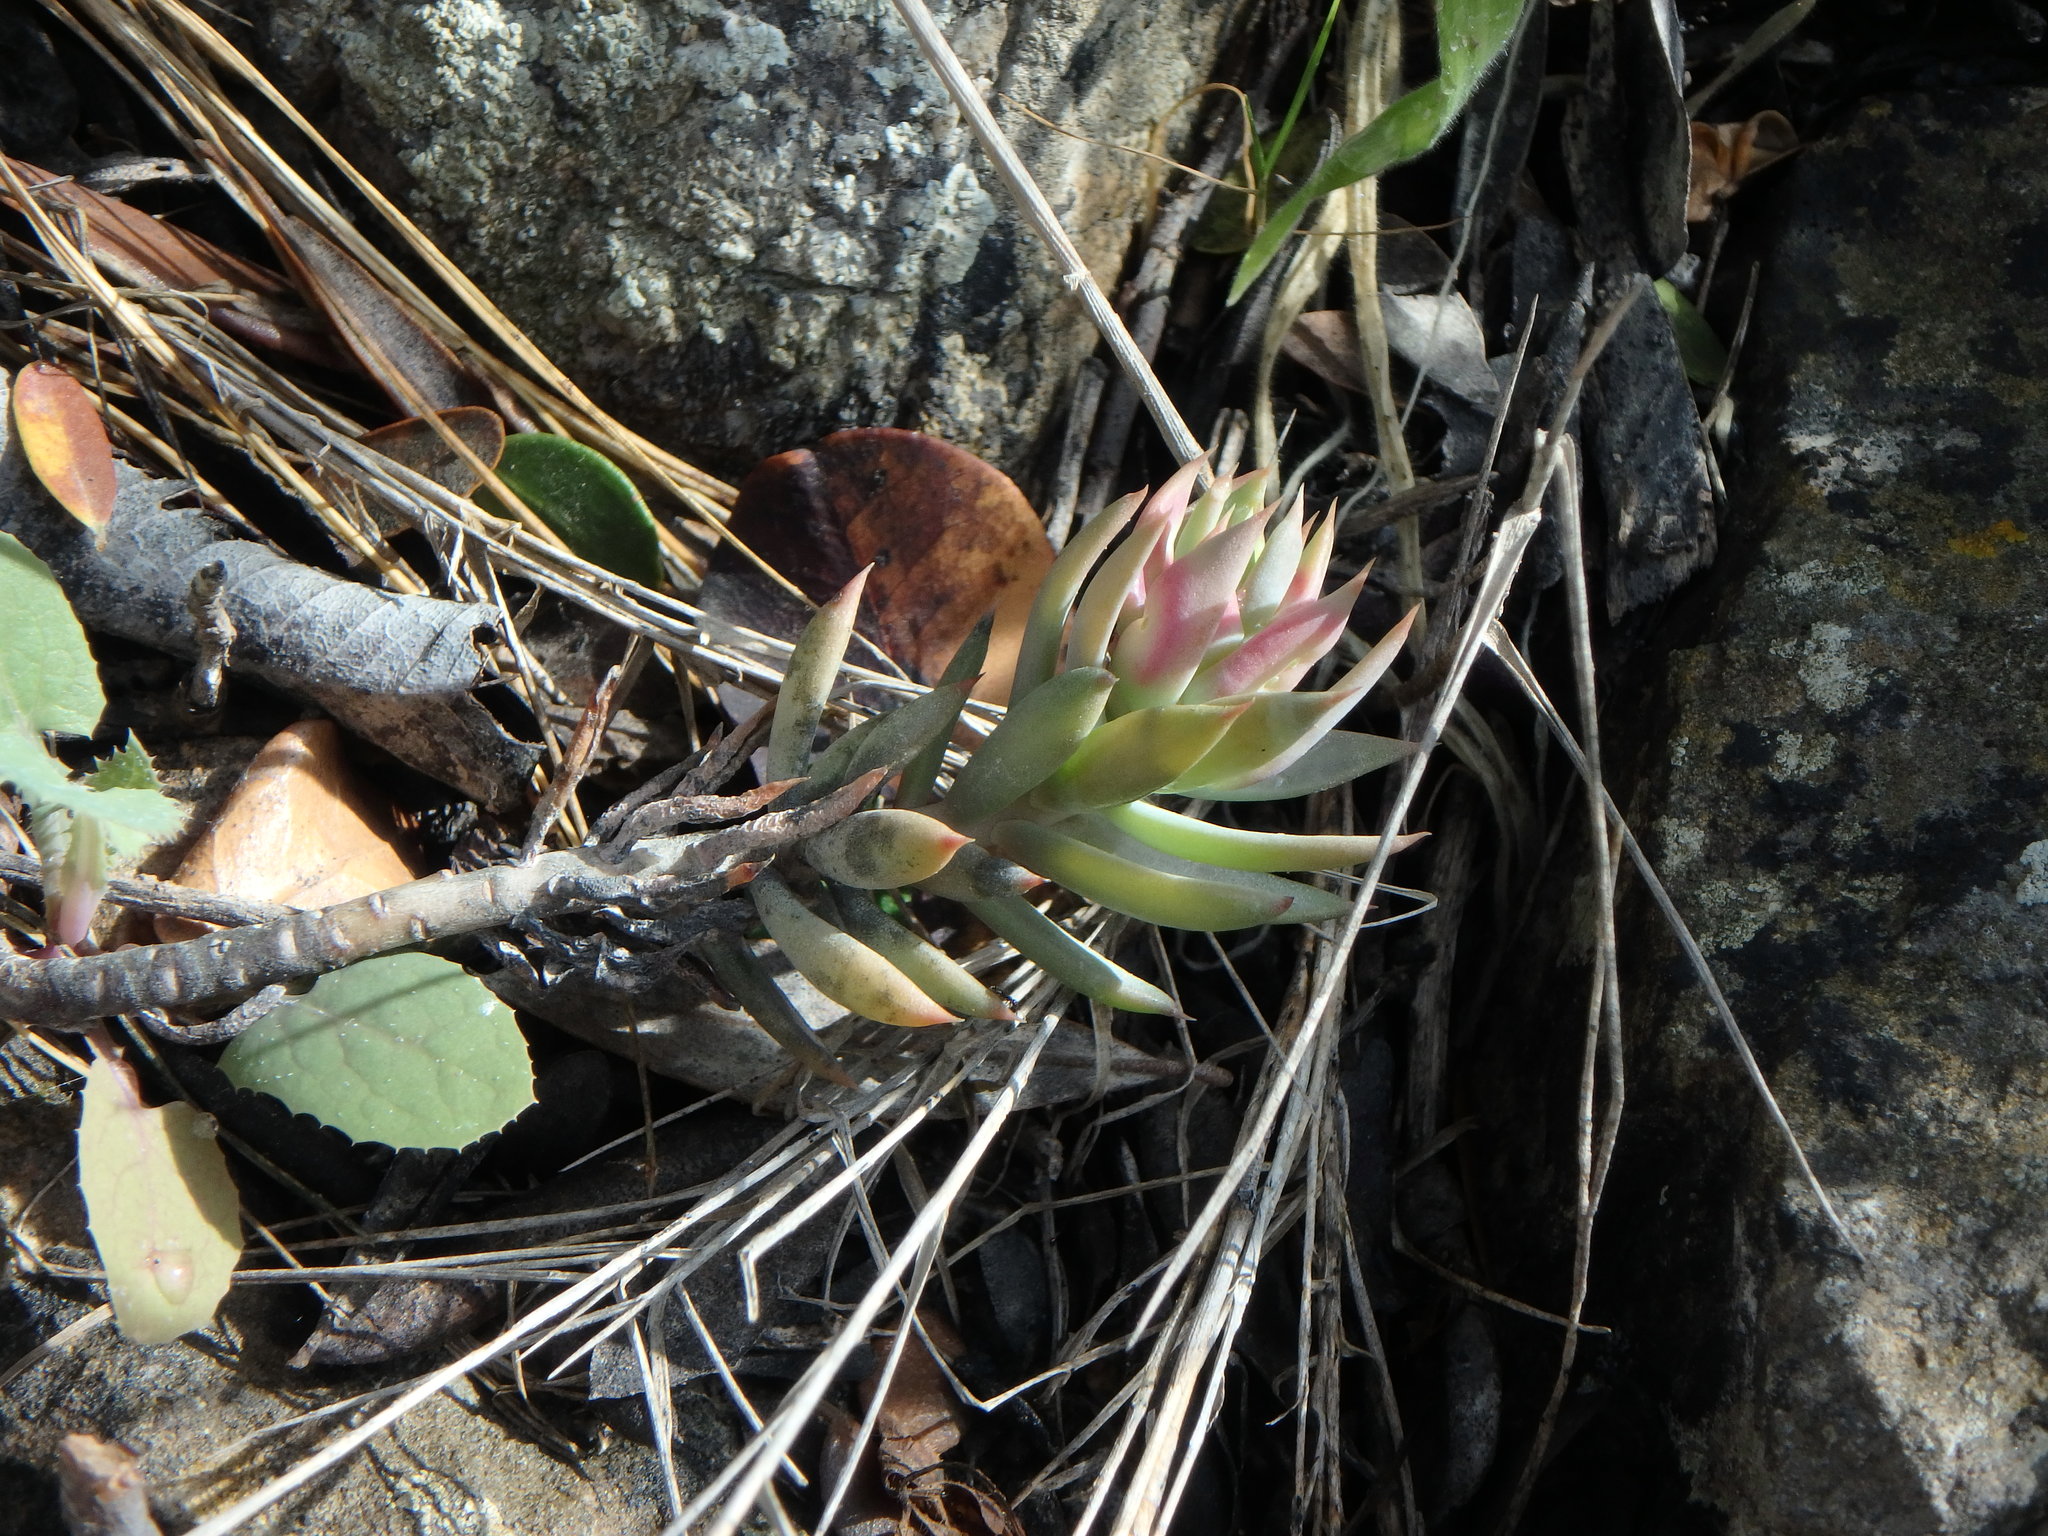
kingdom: Plantae
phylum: Tracheophyta
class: Magnoliopsida
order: Saxifragales
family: Crassulaceae
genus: Petrosedum
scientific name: Petrosedum sediforme
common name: Pale stonecrop
